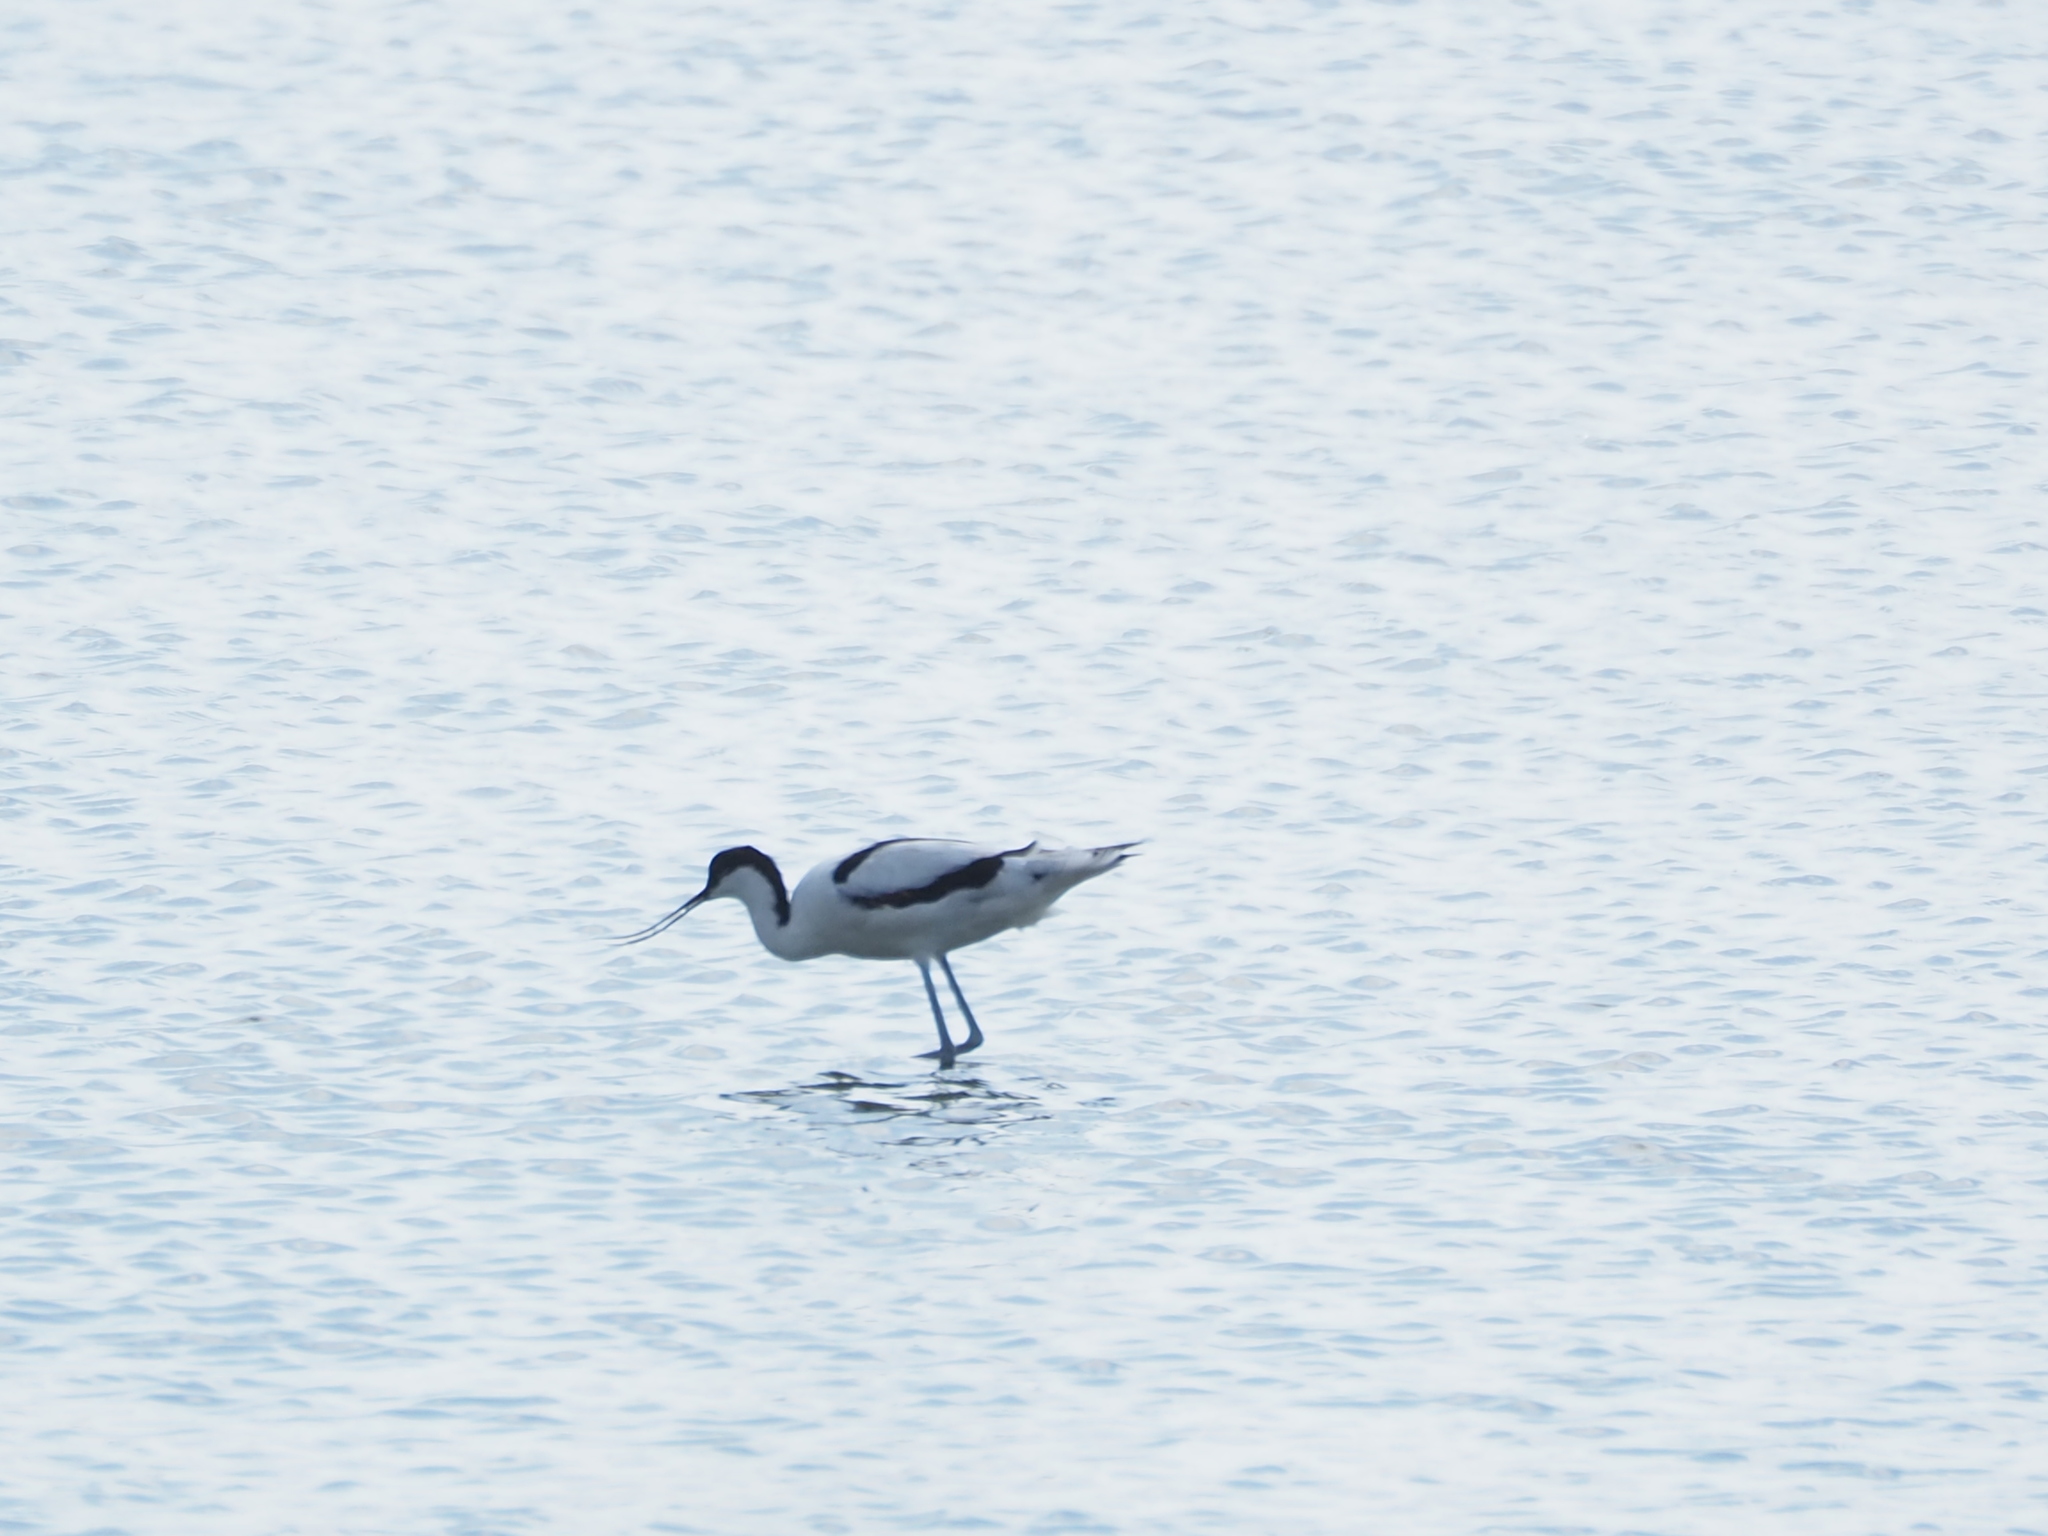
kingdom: Animalia
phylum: Chordata
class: Aves
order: Charadriiformes
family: Recurvirostridae
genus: Recurvirostra
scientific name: Recurvirostra avosetta
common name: Pied avocet
